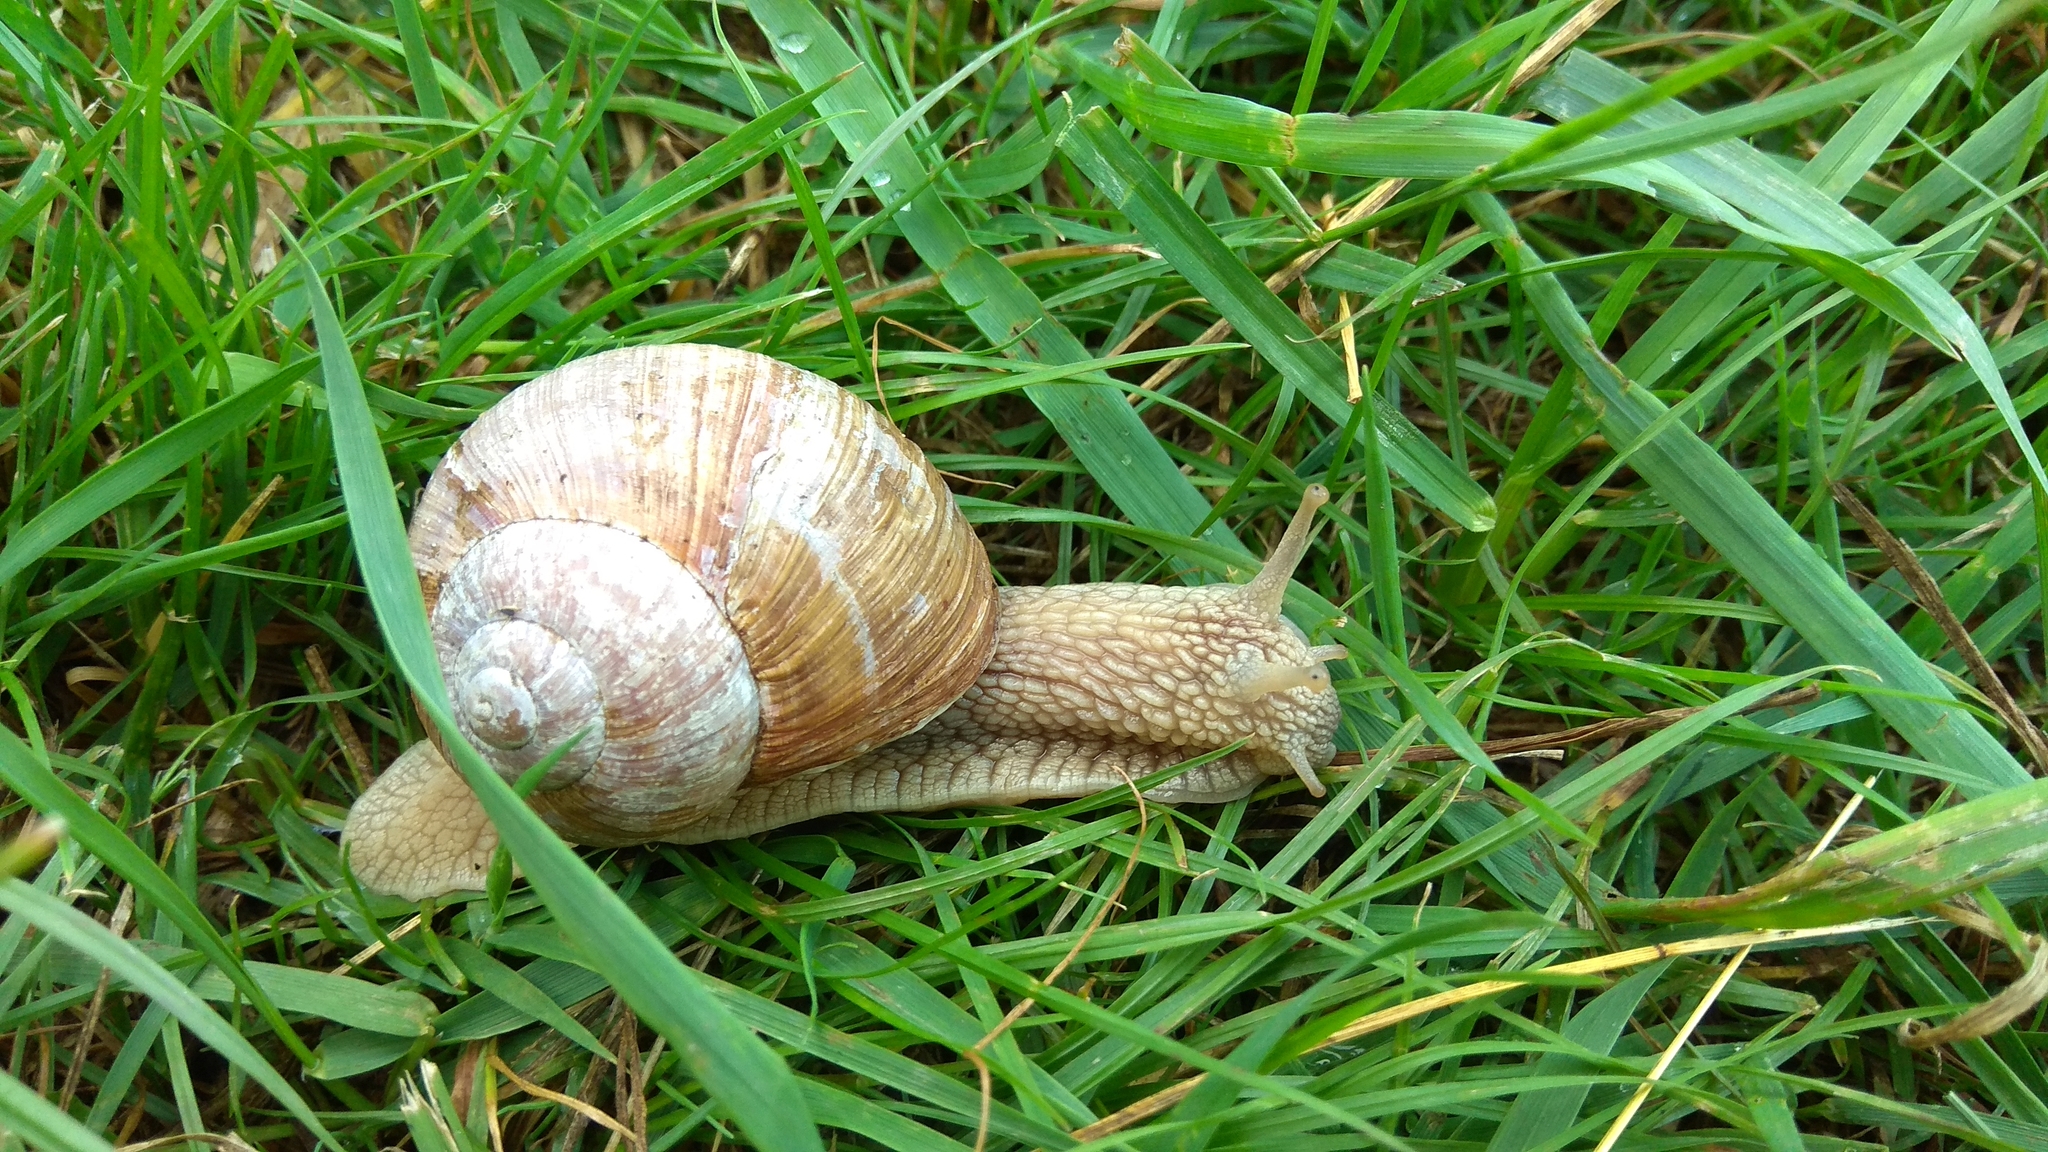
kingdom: Animalia
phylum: Mollusca
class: Gastropoda
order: Stylommatophora
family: Helicidae
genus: Helix
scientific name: Helix pomatia
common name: Roman snail
